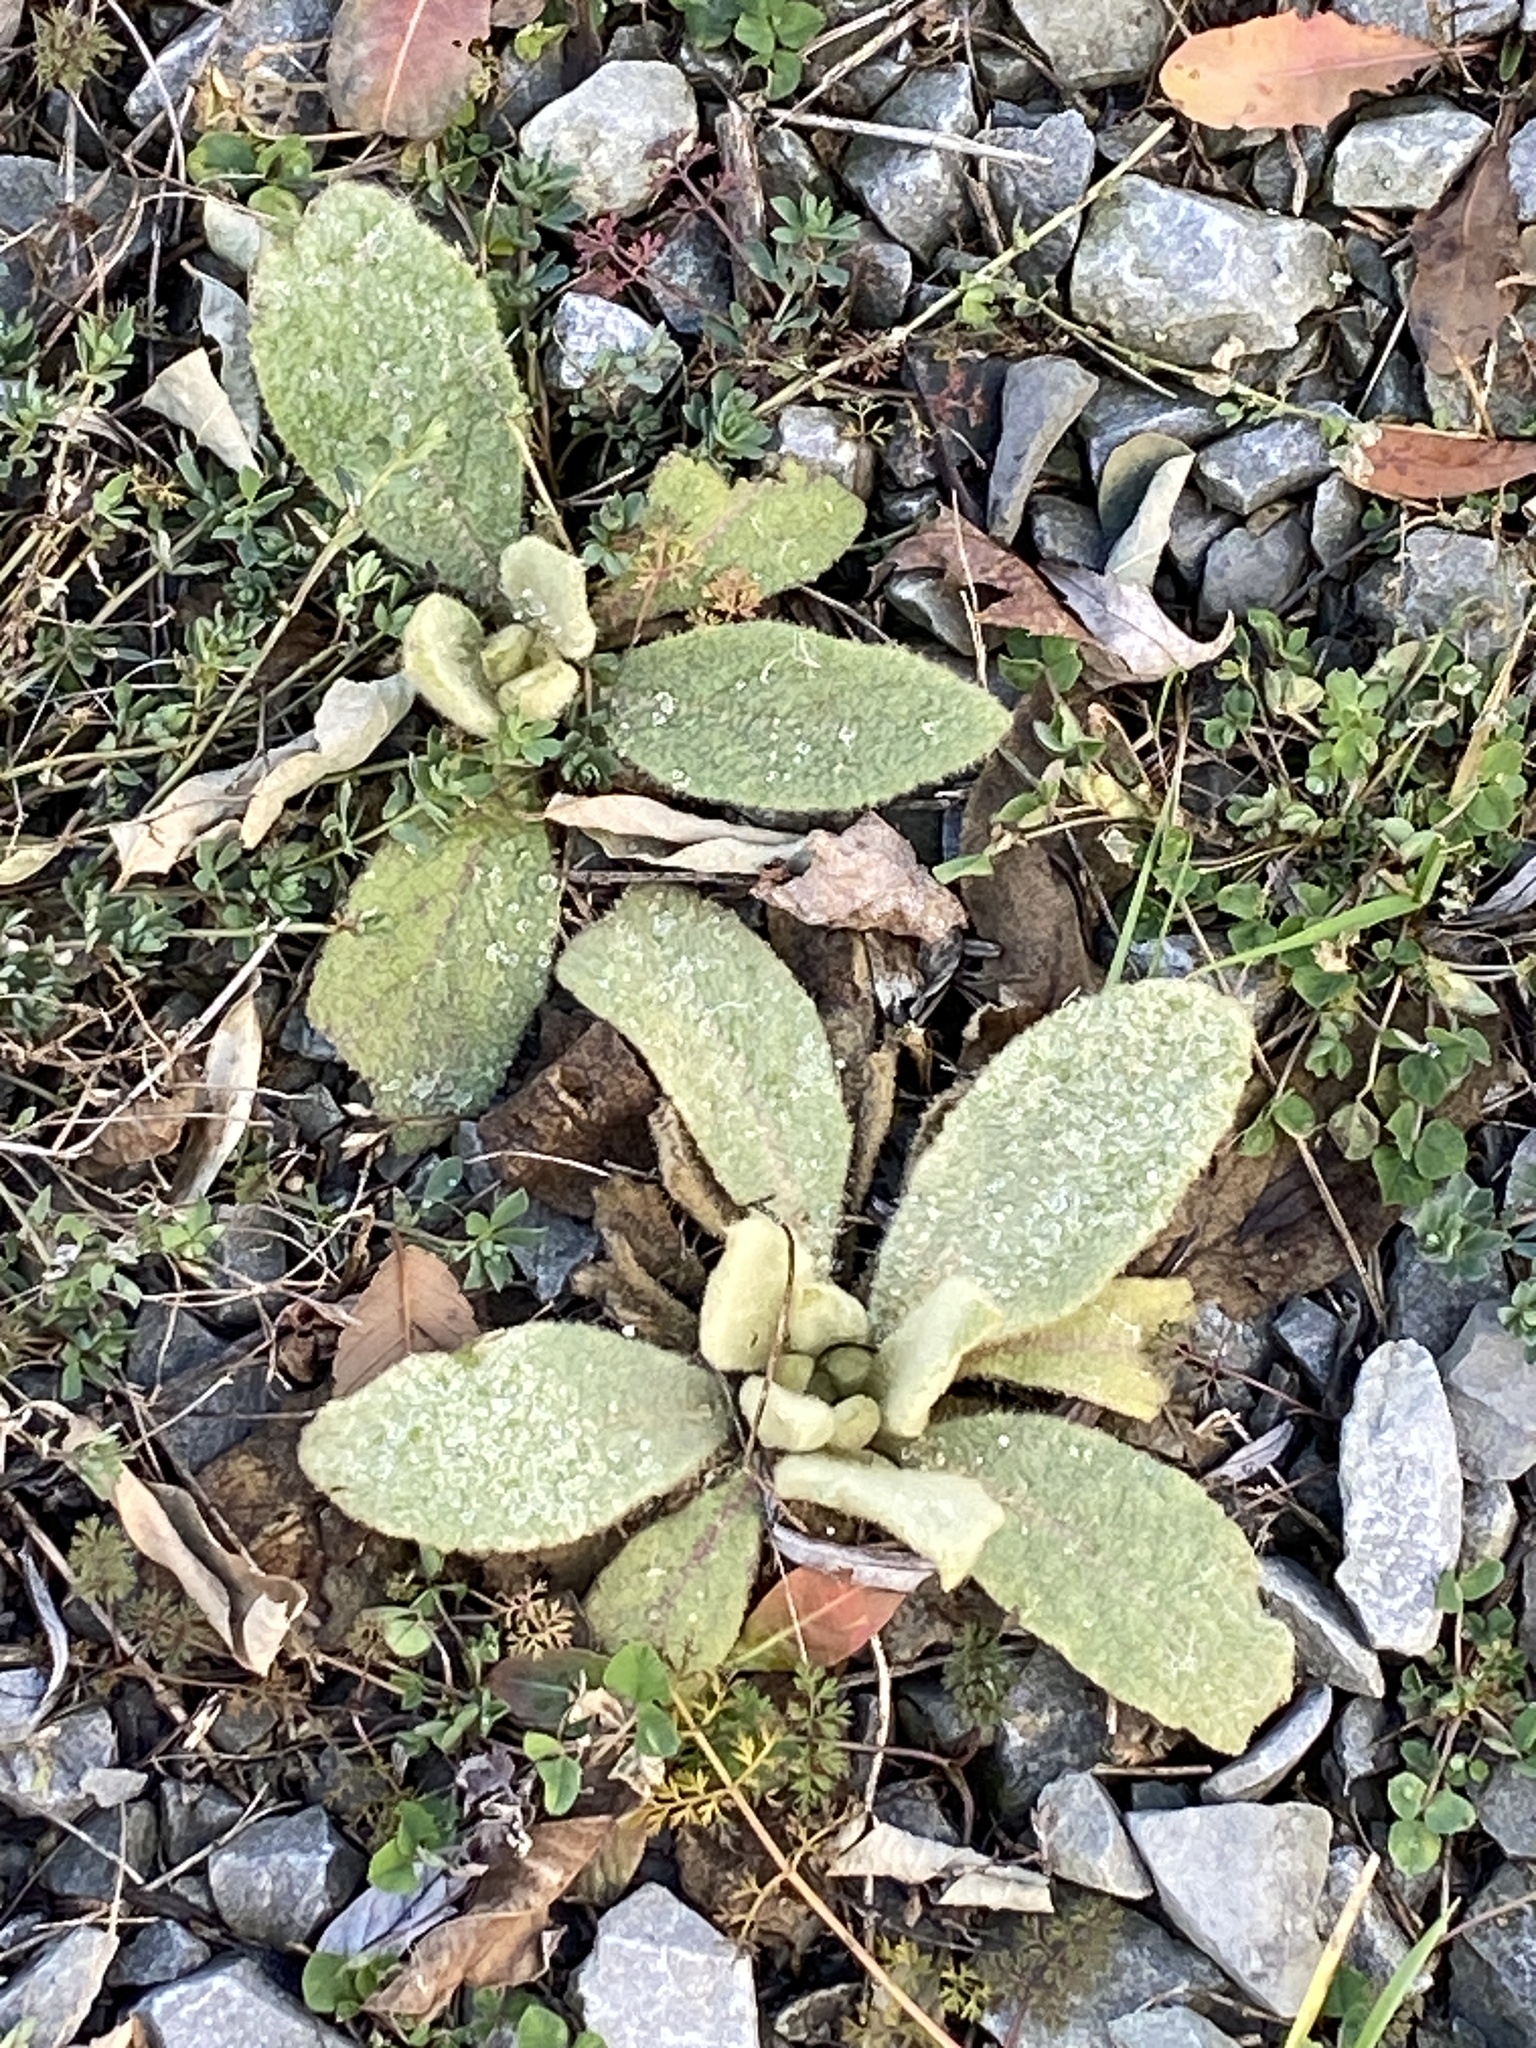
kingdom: Plantae
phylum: Tracheophyta
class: Magnoliopsida
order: Lamiales
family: Scrophulariaceae
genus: Verbascum
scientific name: Verbascum thapsus
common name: Common mullein
